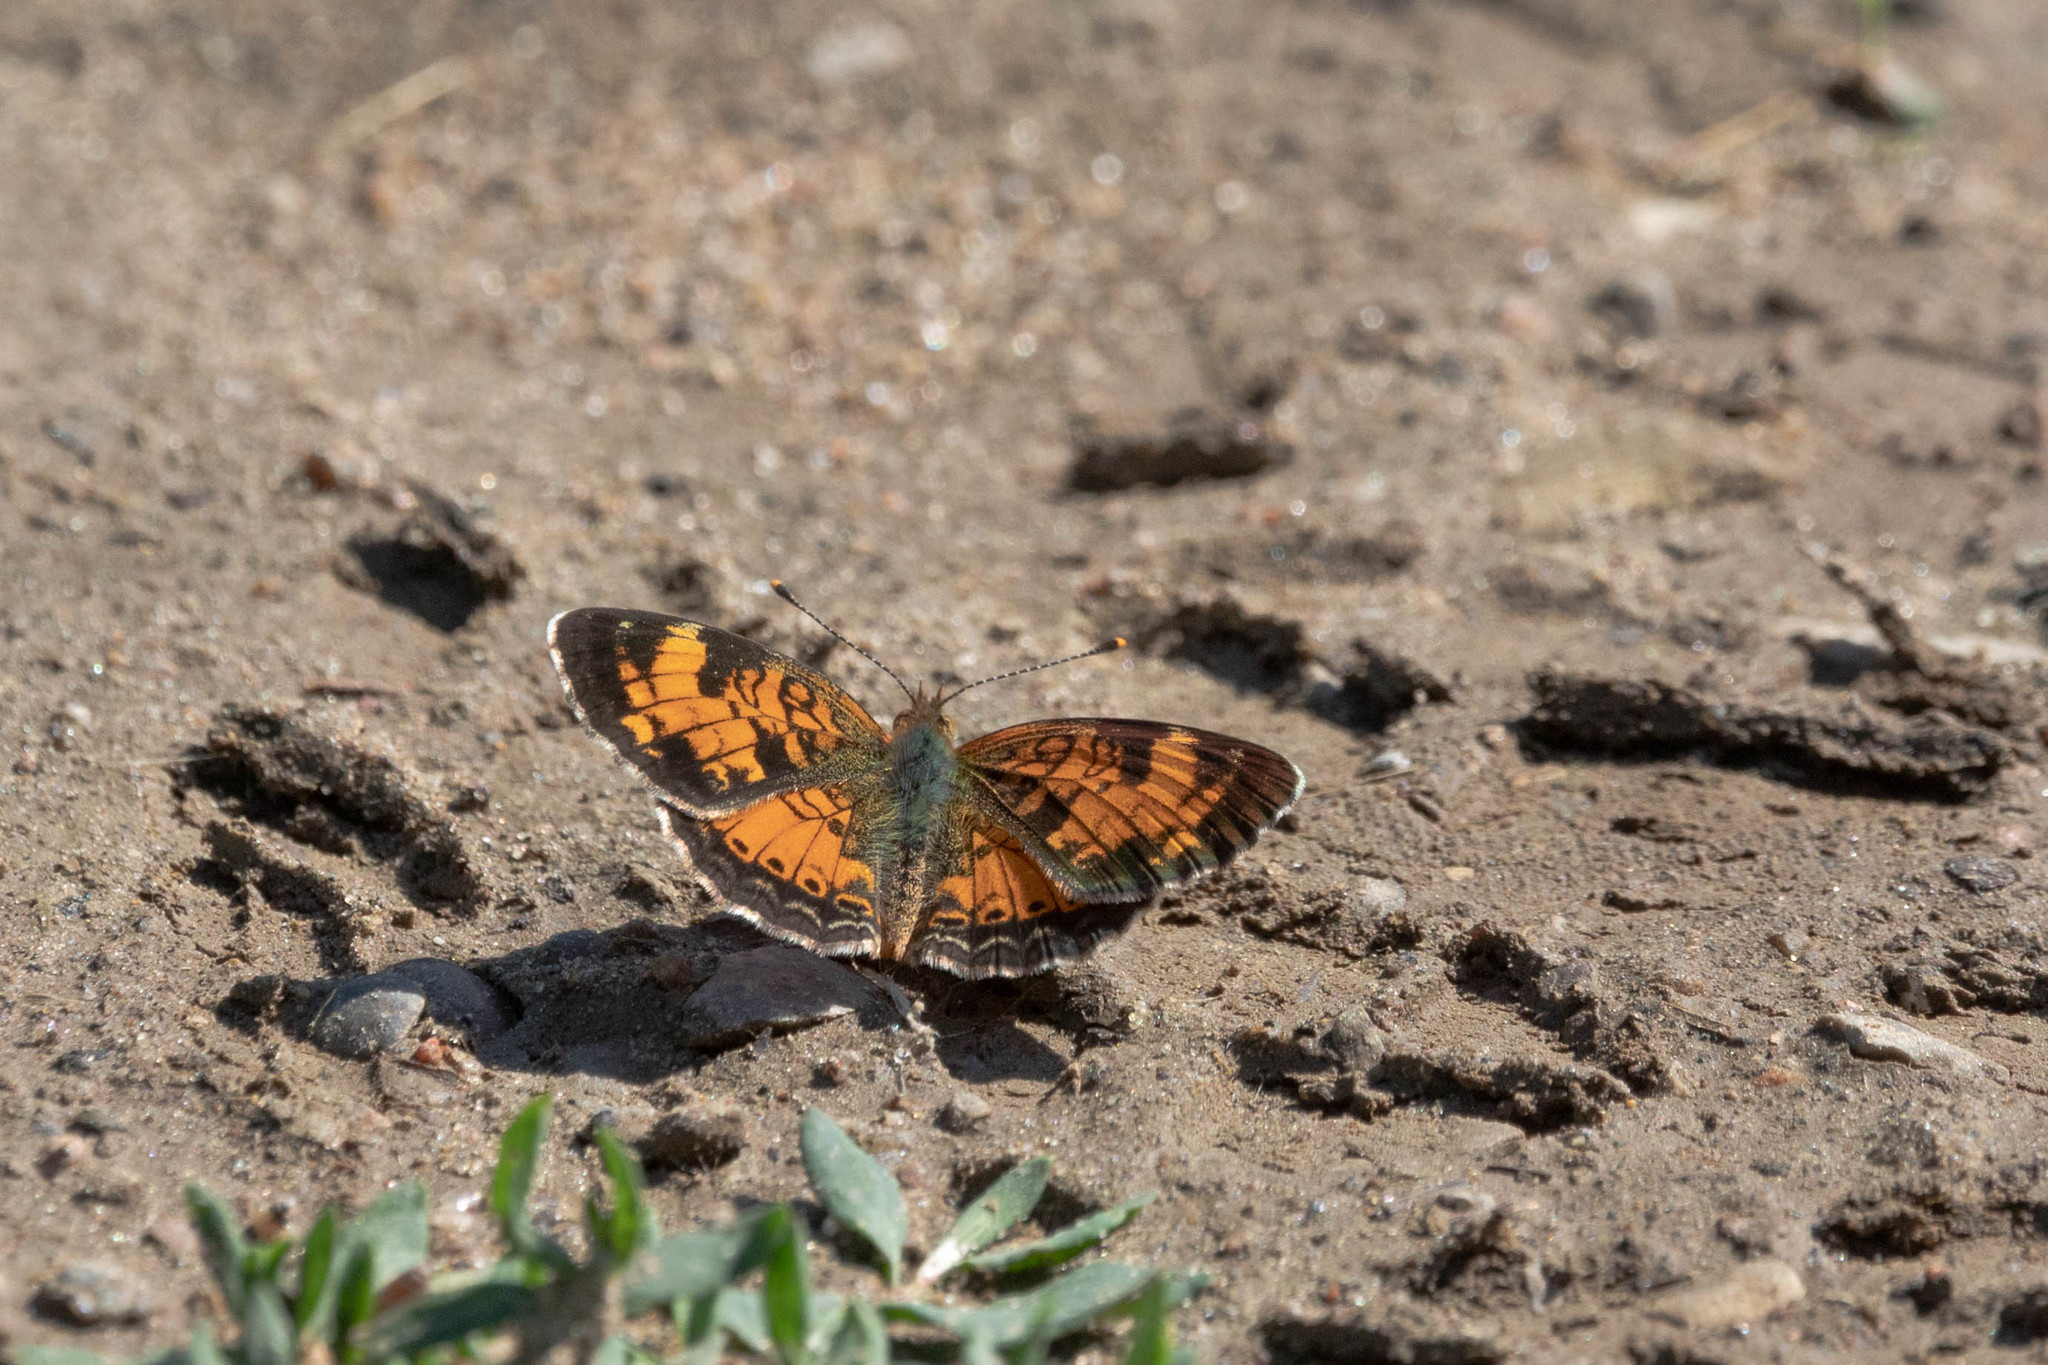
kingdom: Animalia
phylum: Arthropoda
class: Insecta
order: Lepidoptera
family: Nymphalidae
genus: Phyciodes
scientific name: Phyciodes tharos
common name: Pearl crescent
